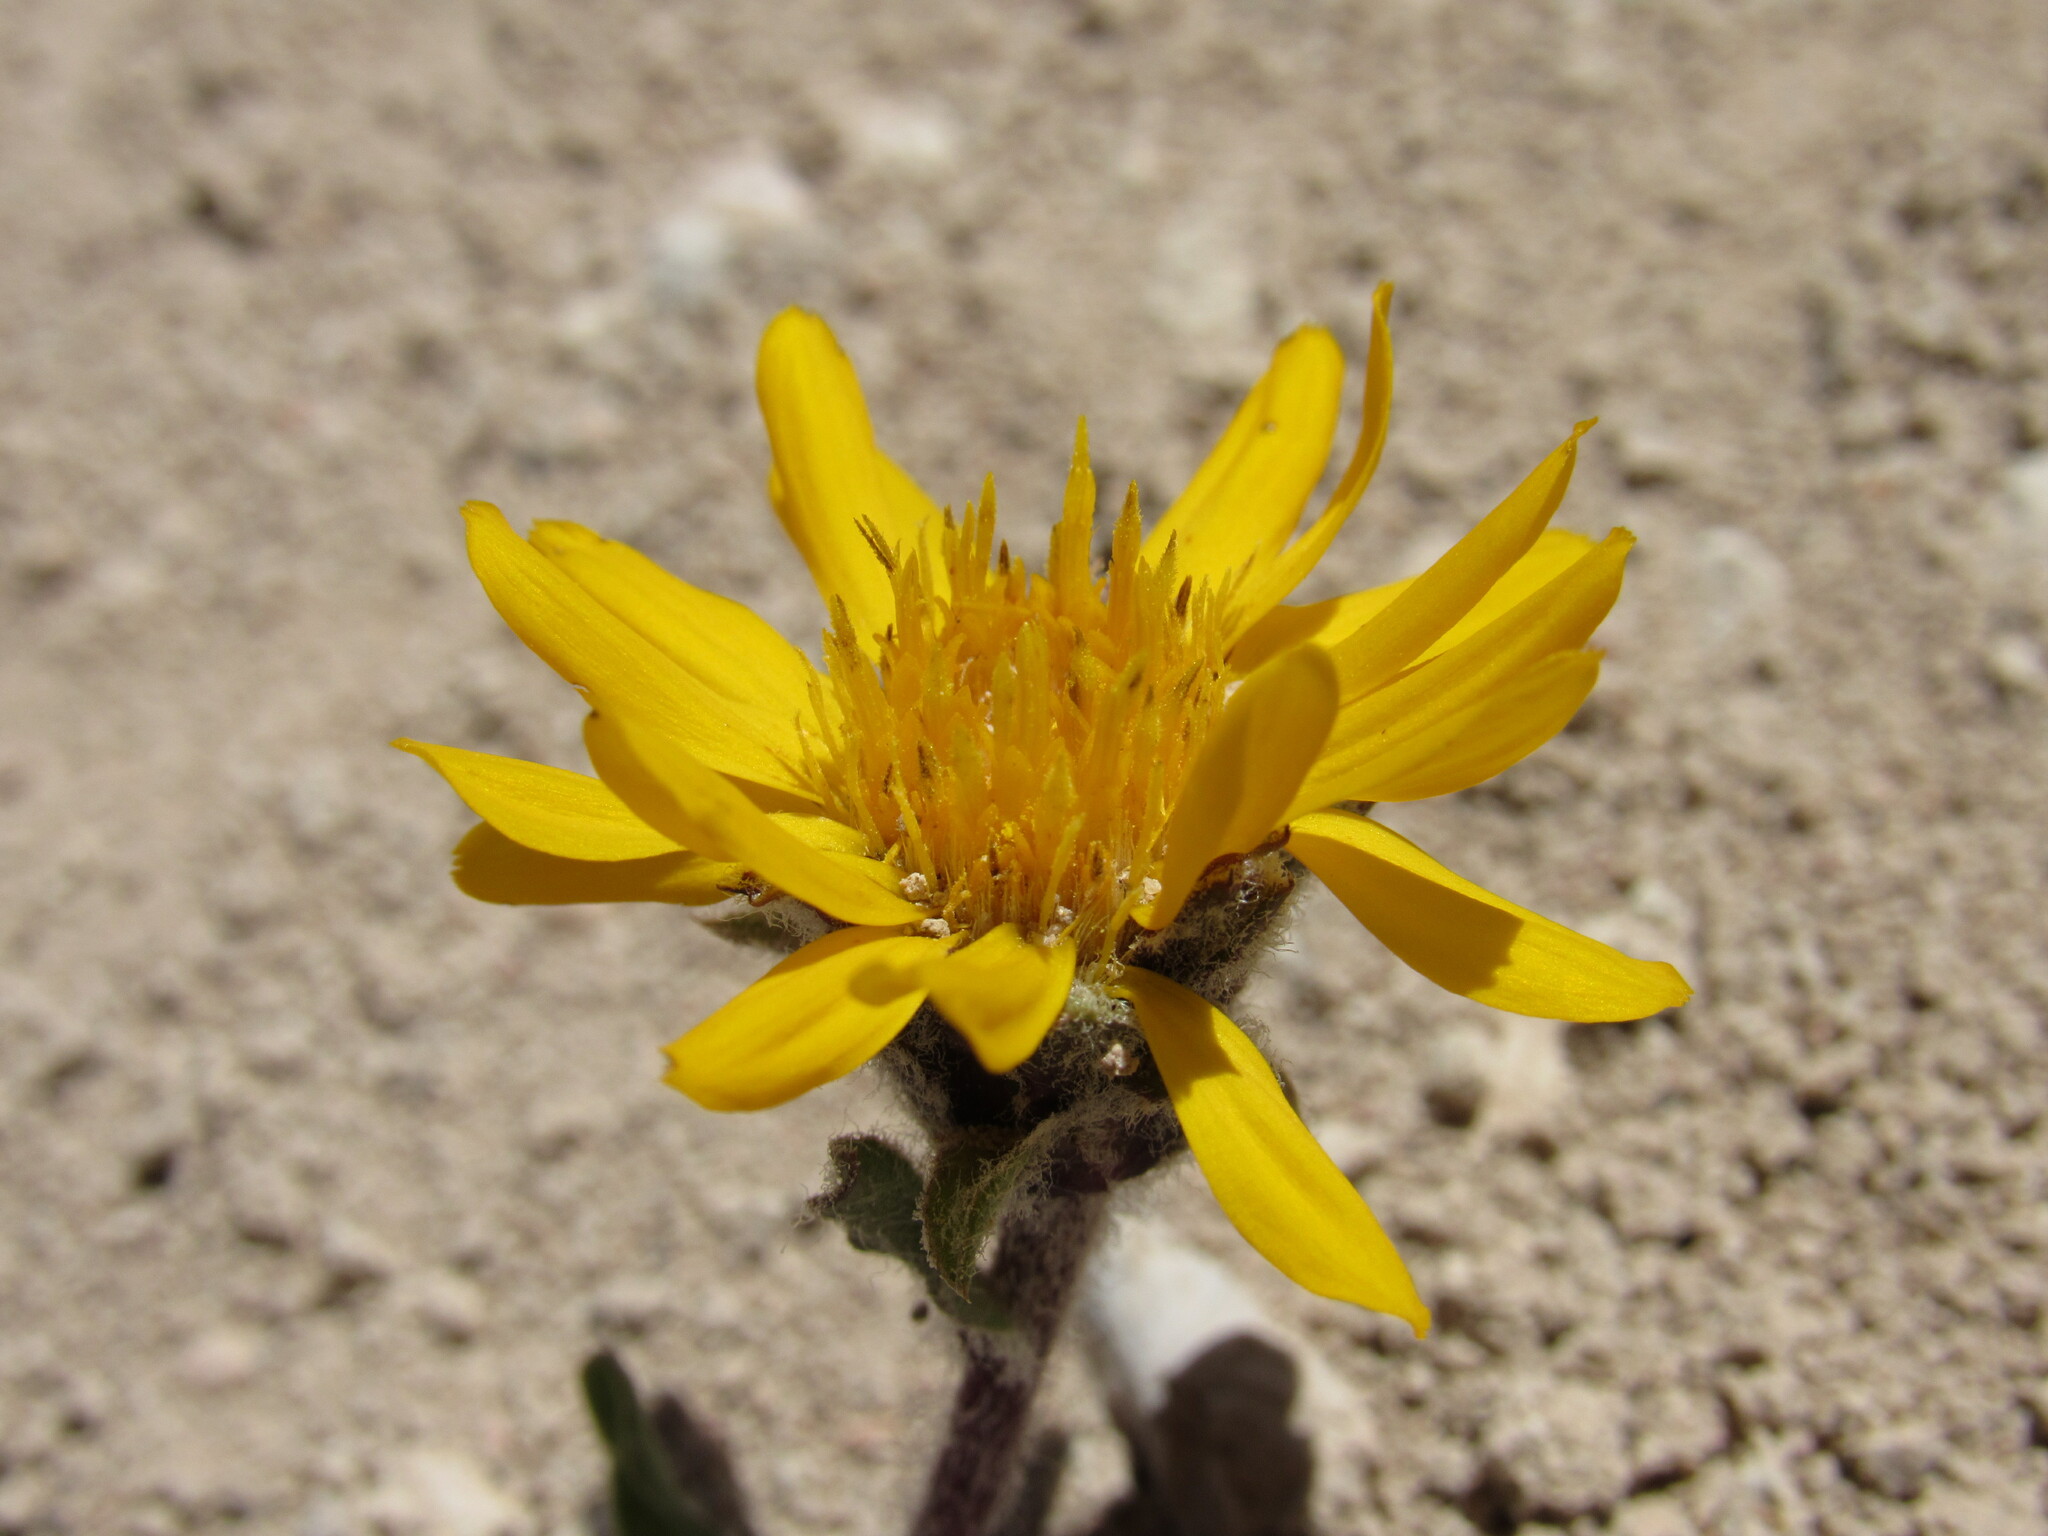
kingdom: Plantae
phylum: Tracheophyta
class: Magnoliopsida
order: Asterales
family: Asteraceae
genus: Pyrrocoma
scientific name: Pyrrocoma clementis
